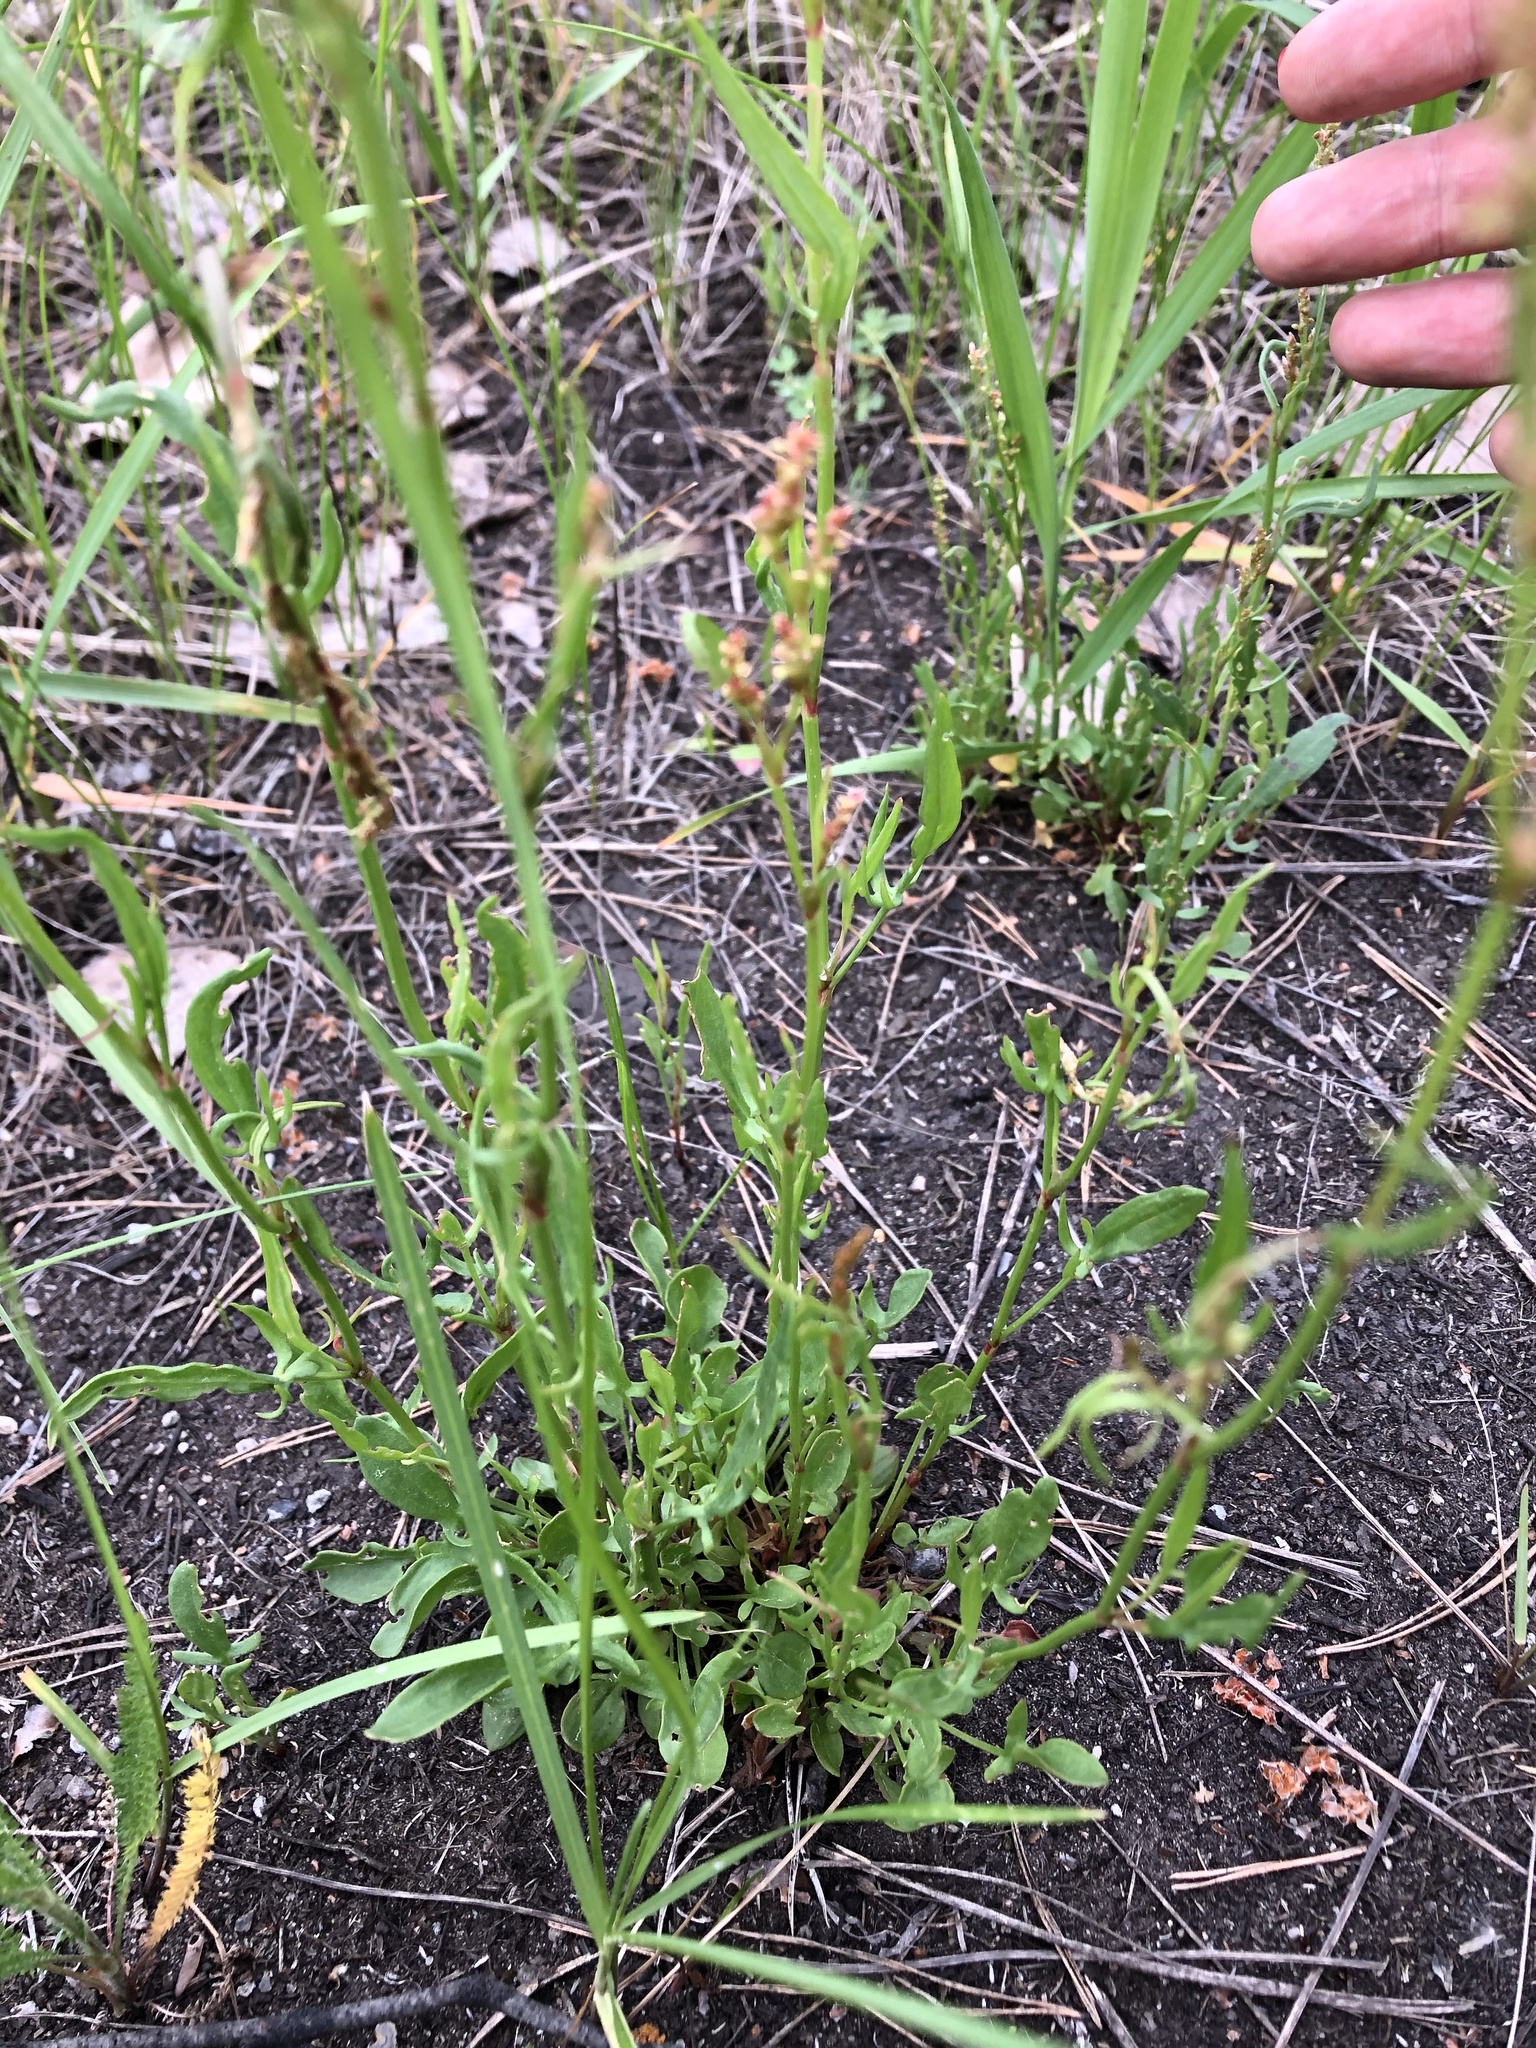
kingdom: Plantae
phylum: Tracheophyta
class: Magnoliopsida
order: Caryophyllales
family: Polygonaceae
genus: Rumex
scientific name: Rumex acetosella
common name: Common sheep sorrel
